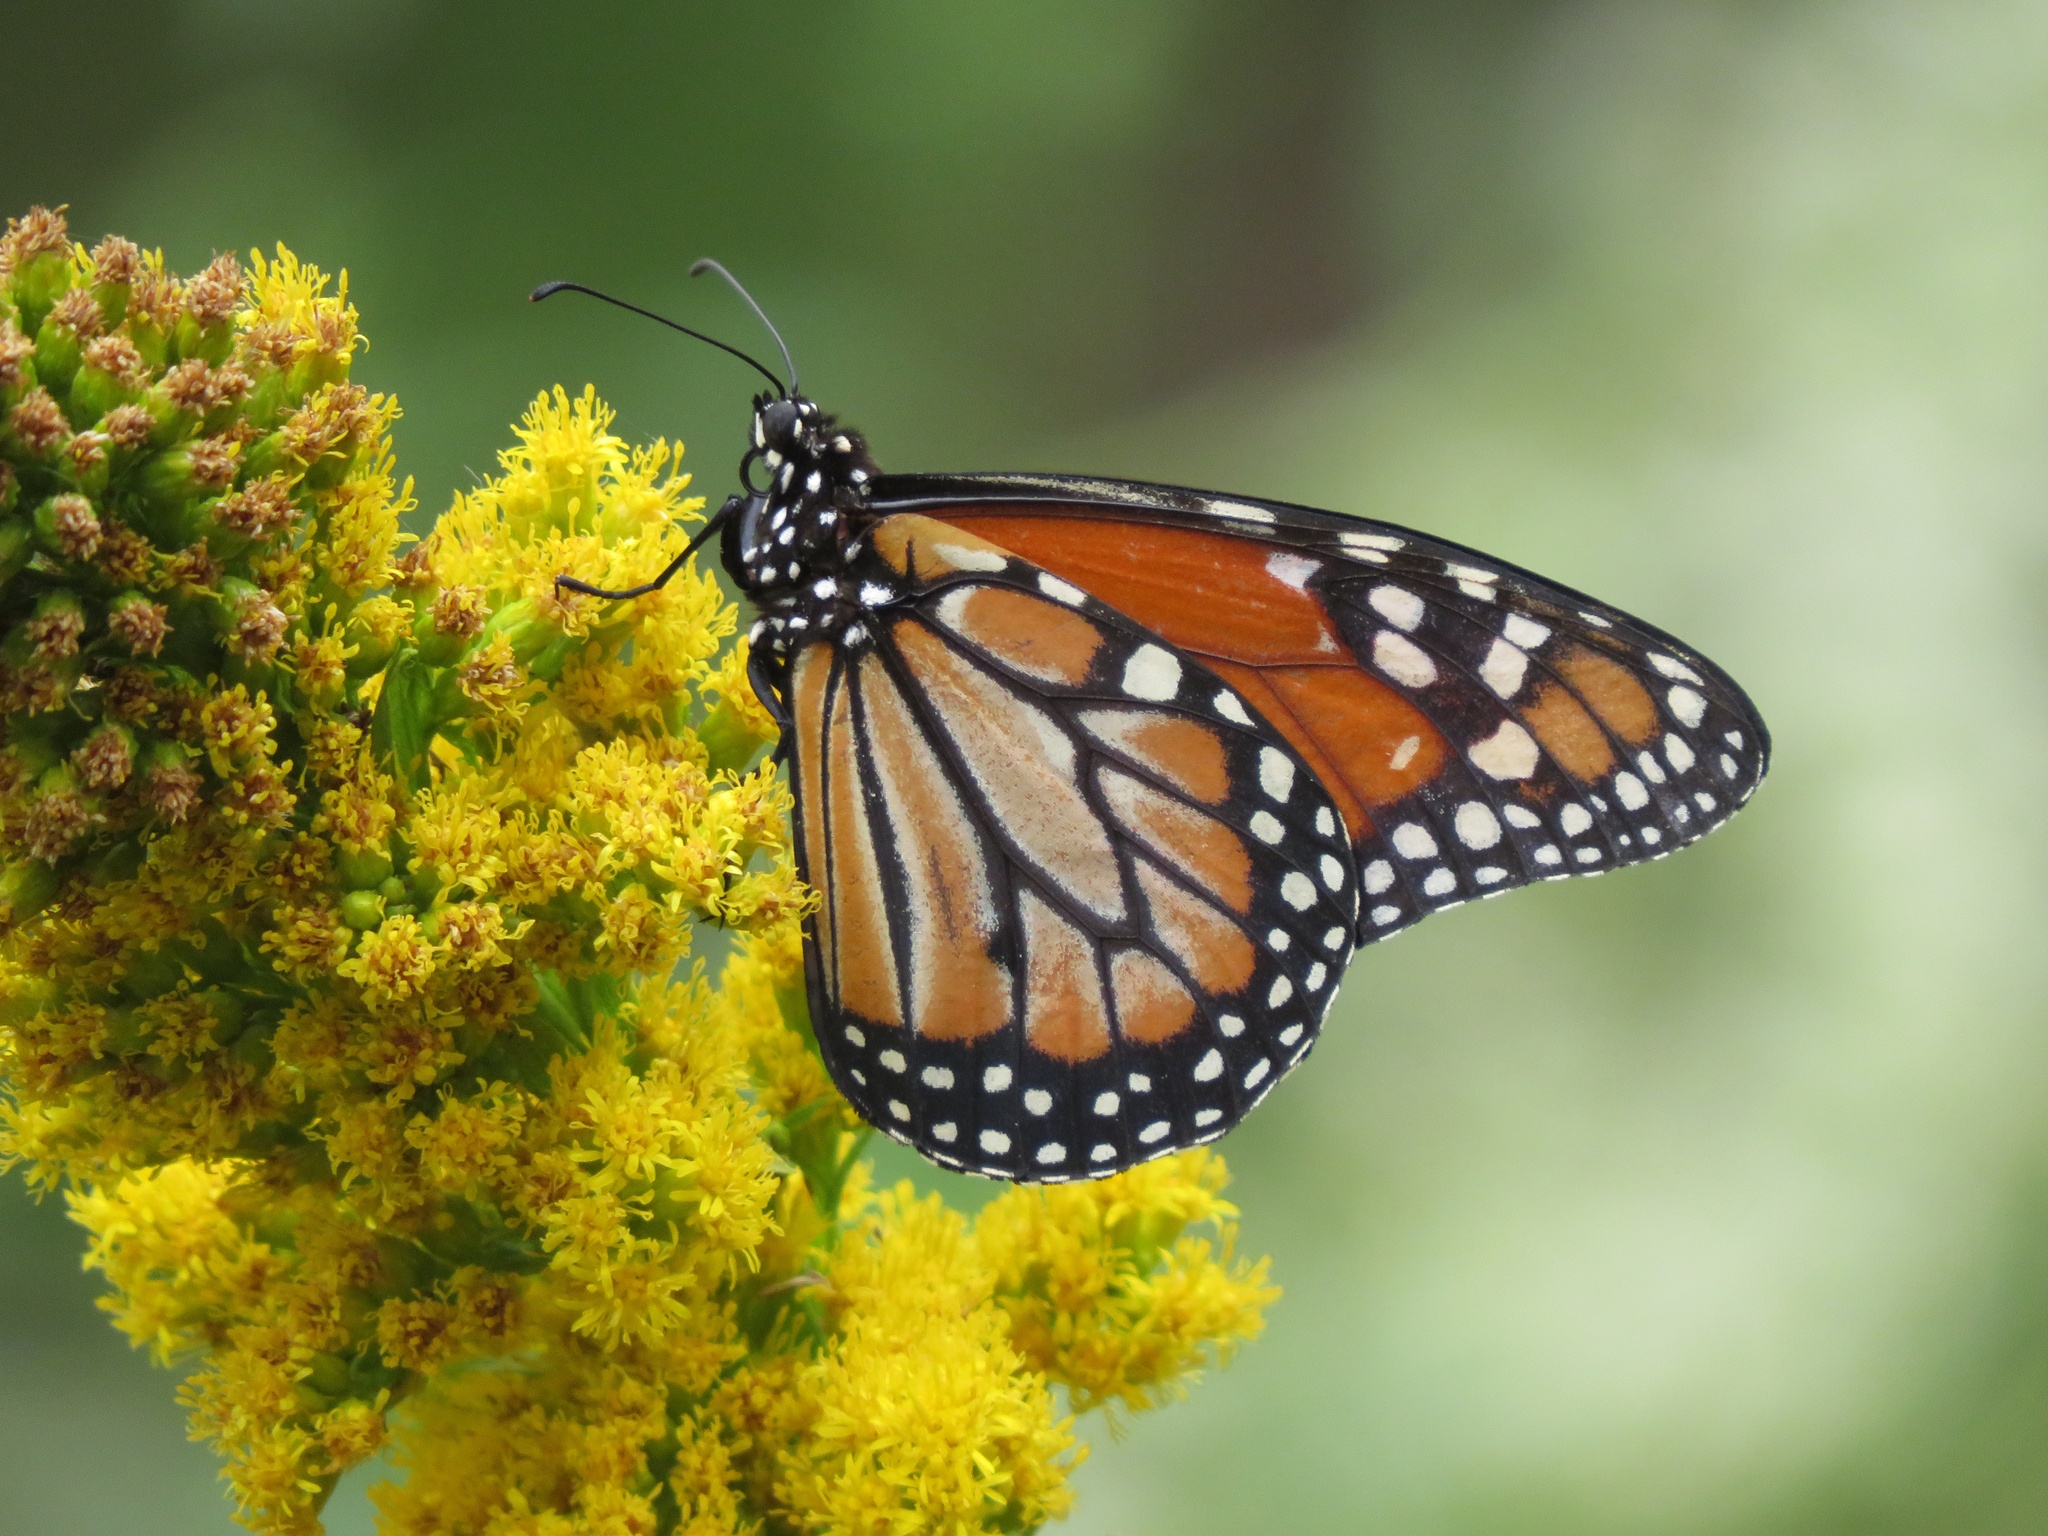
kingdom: Animalia
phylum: Arthropoda
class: Insecta
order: Lepidoptera
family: Nymphalidae
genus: Danaus
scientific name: Danaus erippus
